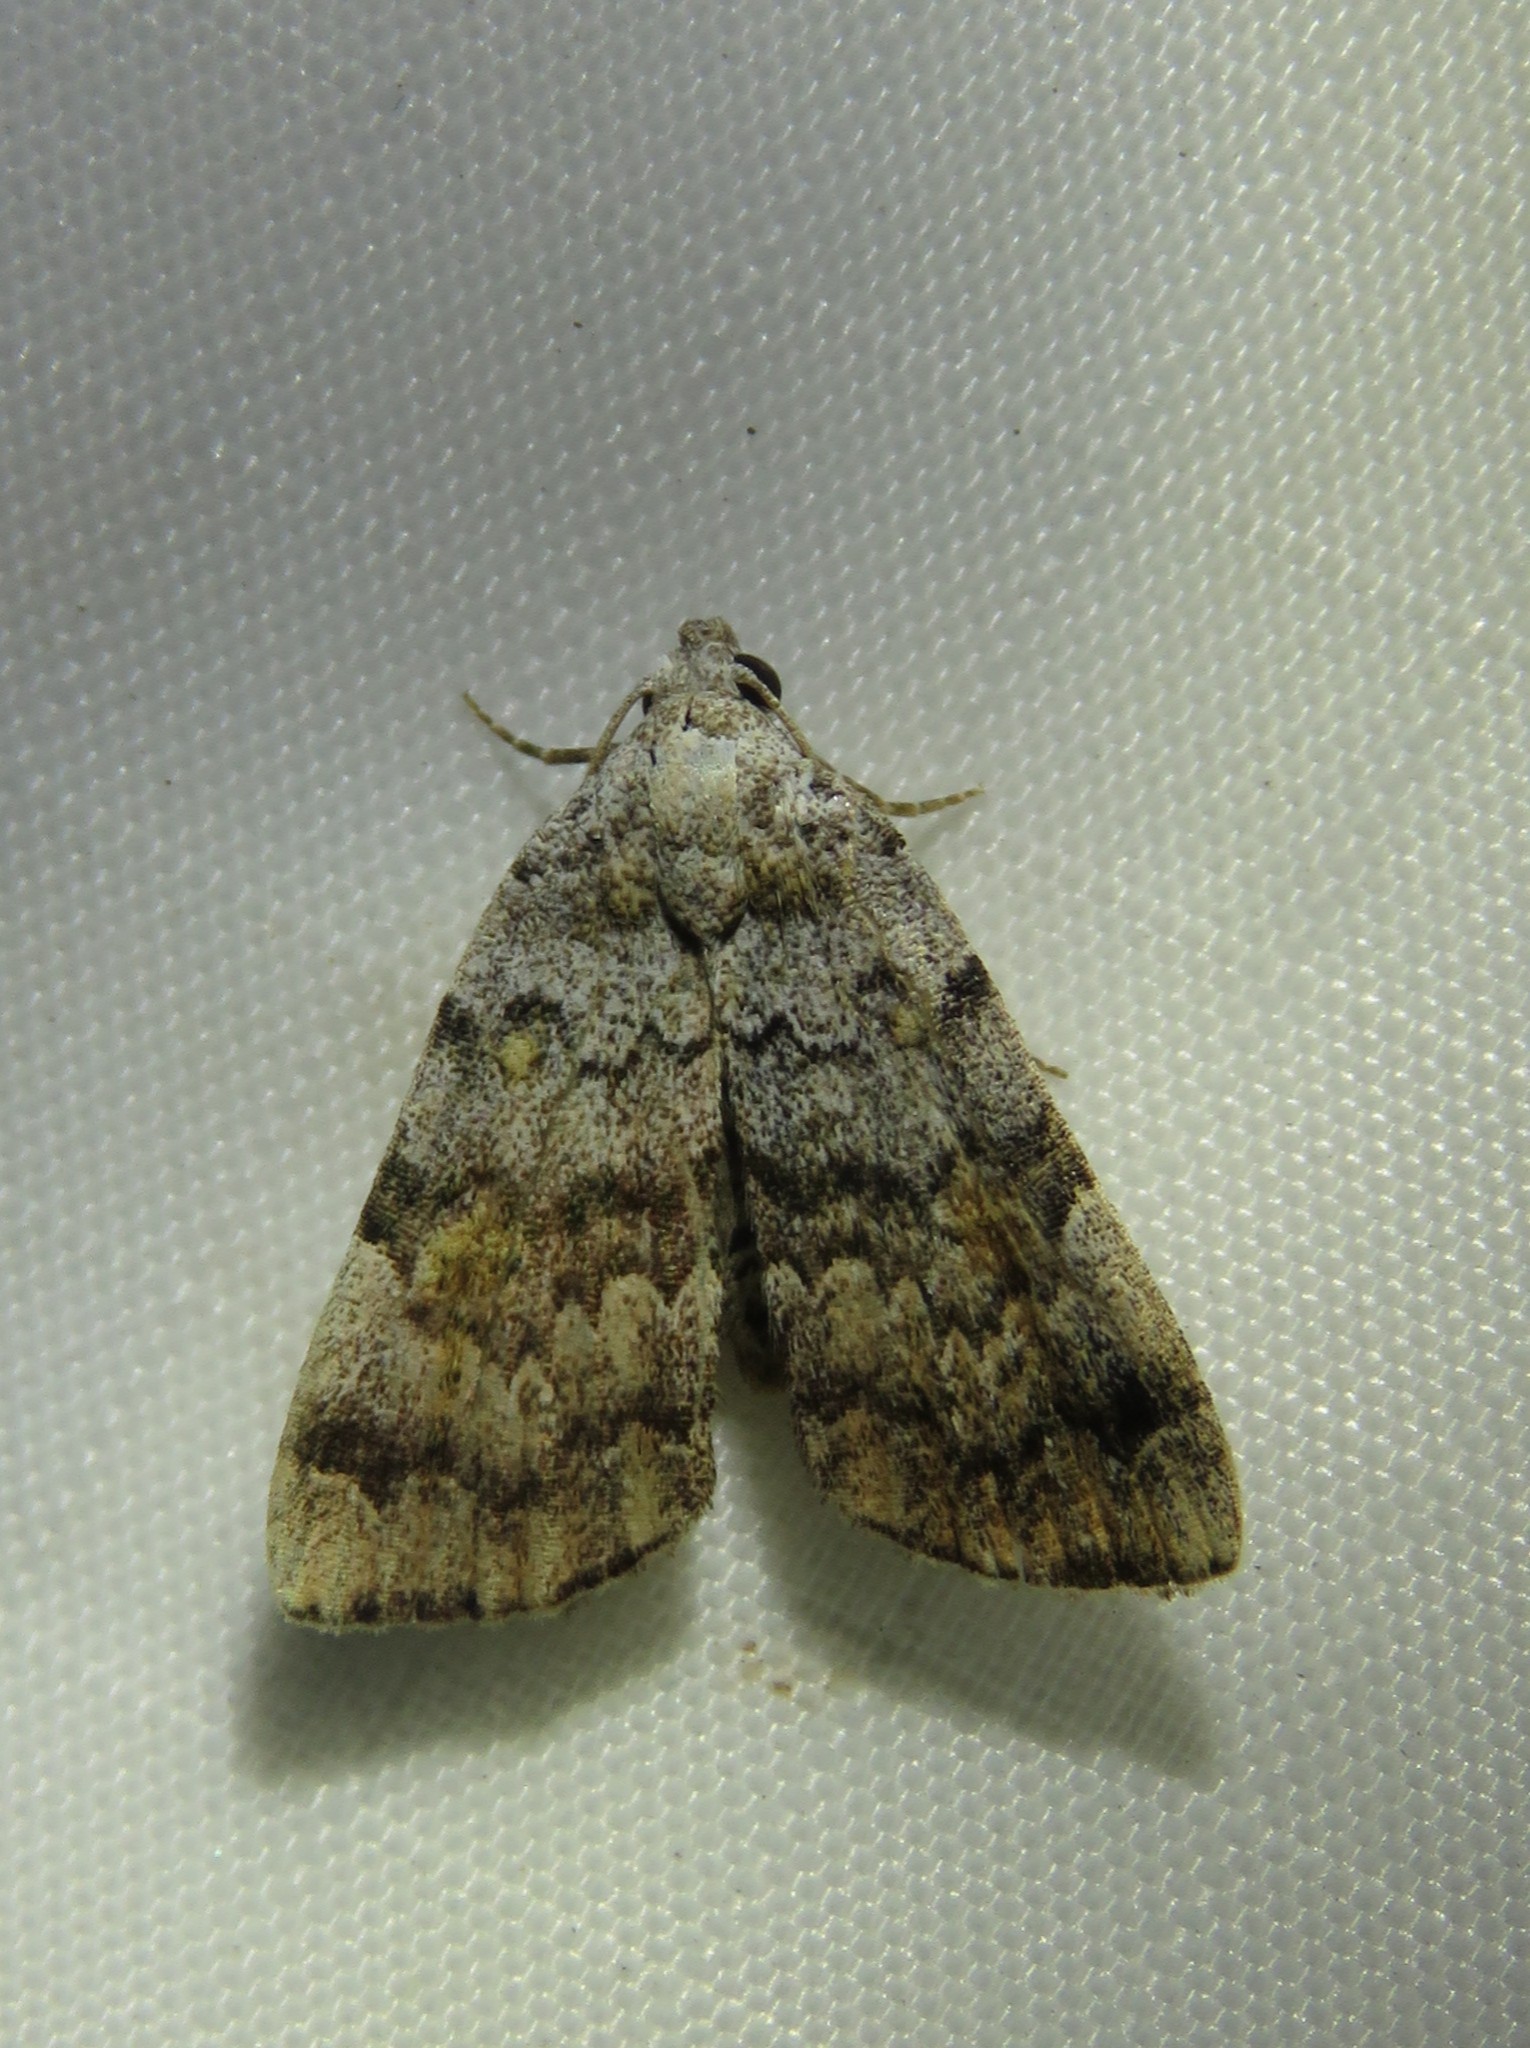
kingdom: Animalia
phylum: Arthropoda
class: Insecta
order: Lepidoptera
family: Erebidae
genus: Idia
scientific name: Idia americalis
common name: American idia moth
